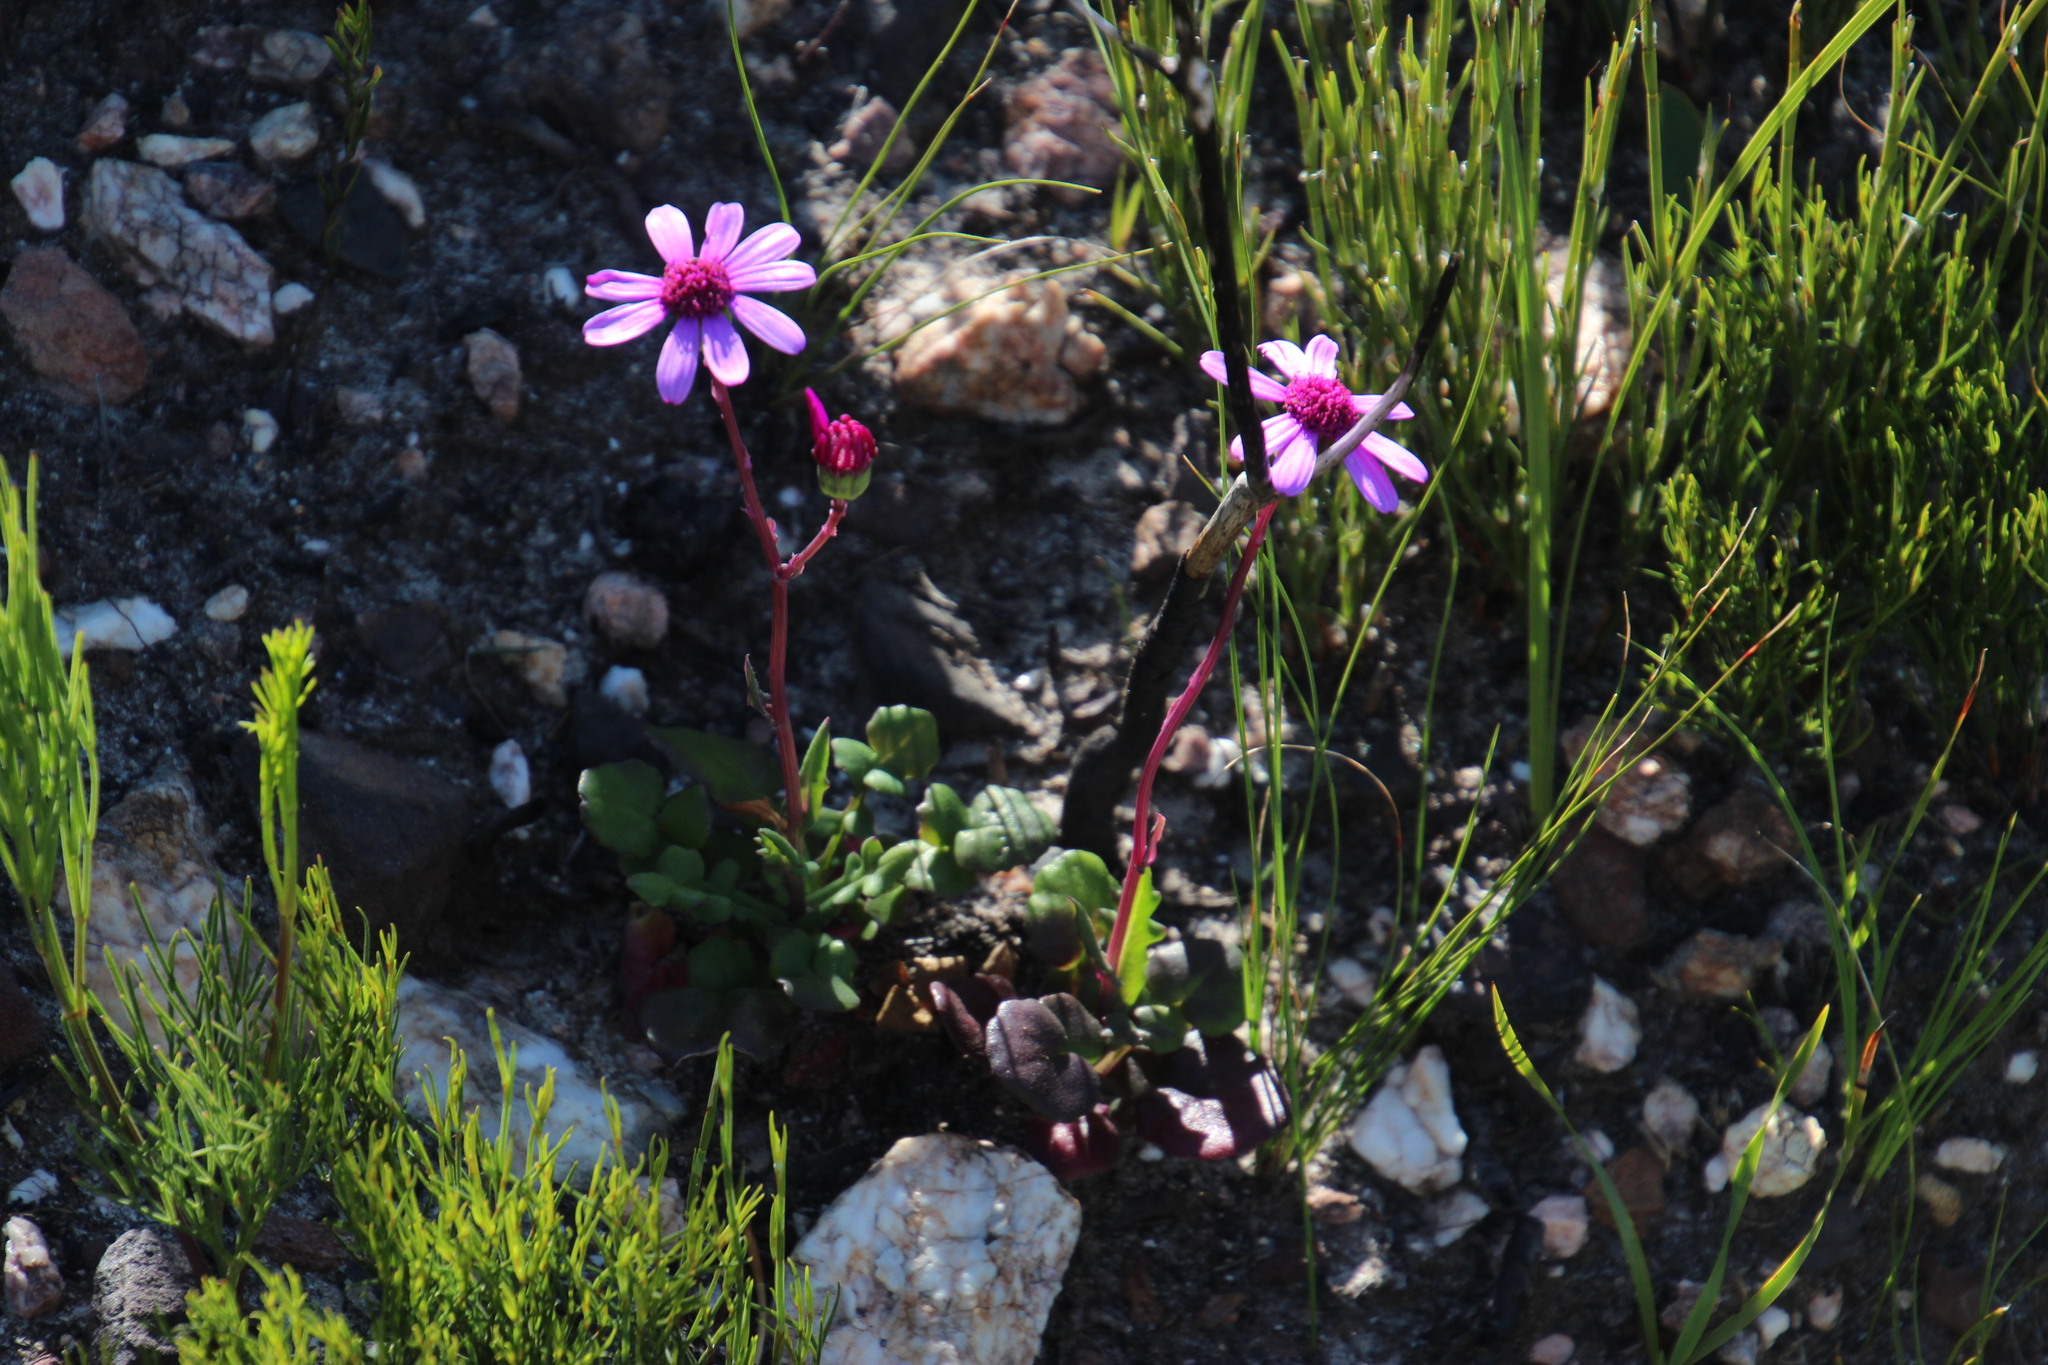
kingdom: Plantae
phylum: Tracheophyta
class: Magnoliopsida
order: Asterales
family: Asteraceae
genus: Senecio
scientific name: Senecio cymbalariifolius
